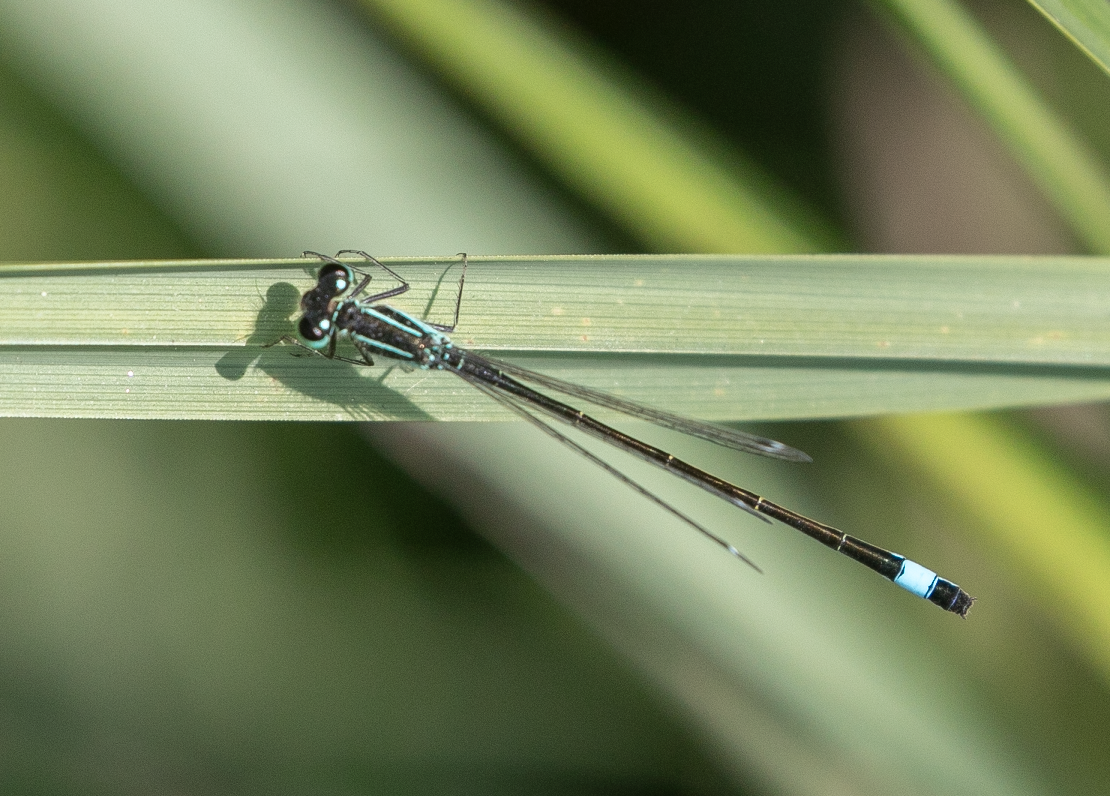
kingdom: Animalia
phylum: Arthropoda
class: Insecta
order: Odonata
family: Coenagrionidae
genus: Ischnura
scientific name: Ischnura elegans
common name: Blue-tailed damselfly
